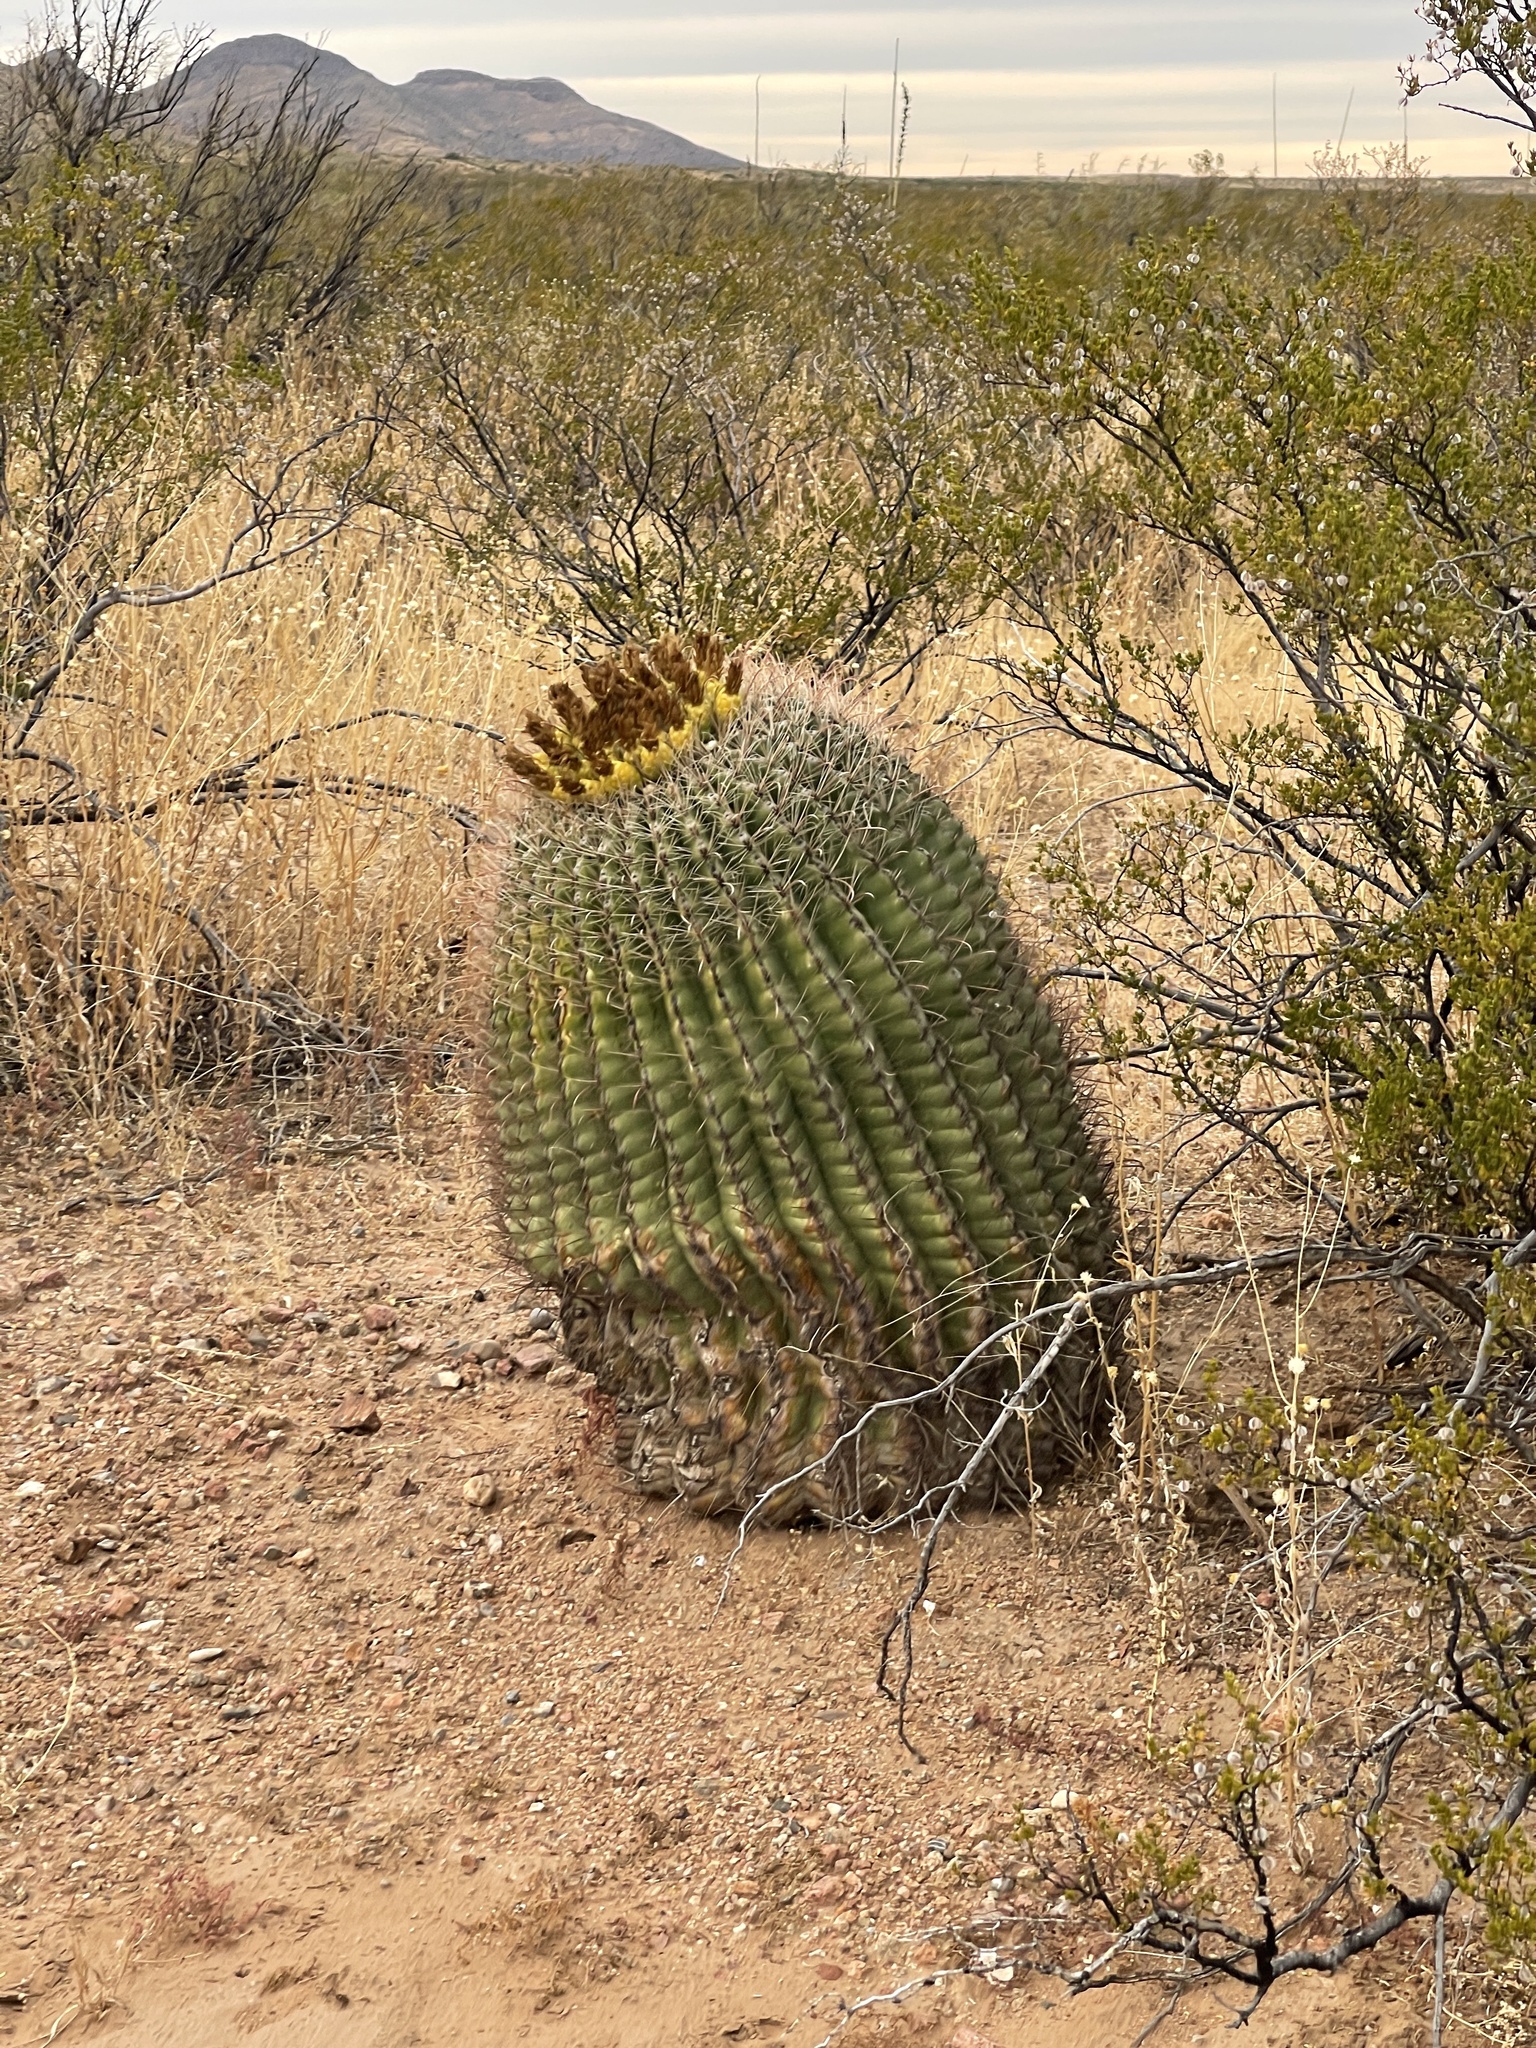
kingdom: Plantae
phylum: Tracheophyta
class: Magnoliopsida
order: Caryophyllales
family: Cactaceae
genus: Ferocactus
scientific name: Ferocactus wislizeni
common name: Candy barrel cactus
